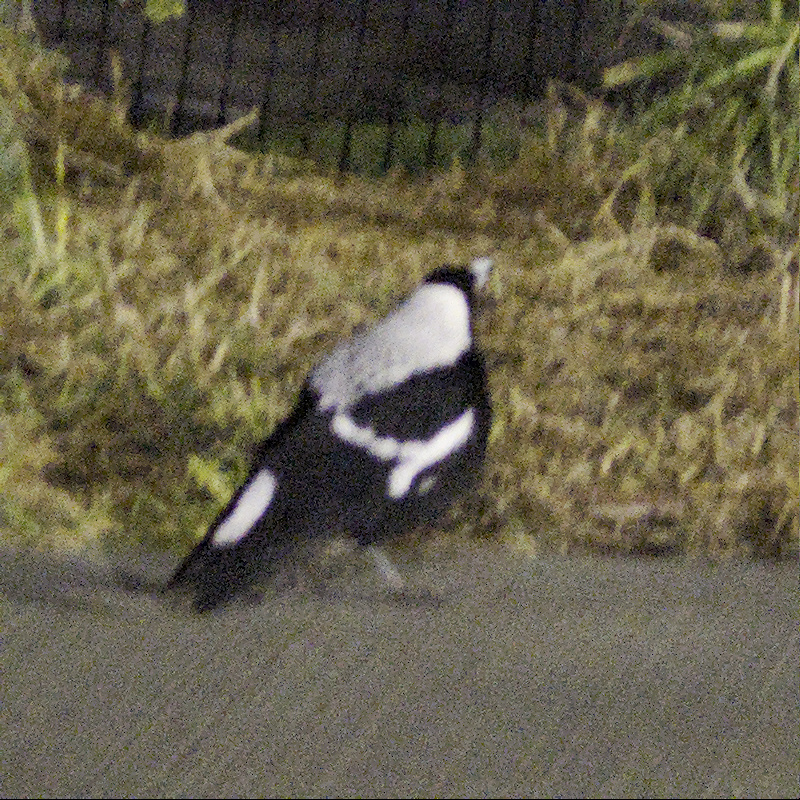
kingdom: Animalia
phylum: Chordata
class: Aves
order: Passeriformes
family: Cracticidae
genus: Gymnorhina
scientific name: Gymnorhina tibicen
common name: Australian magpie
